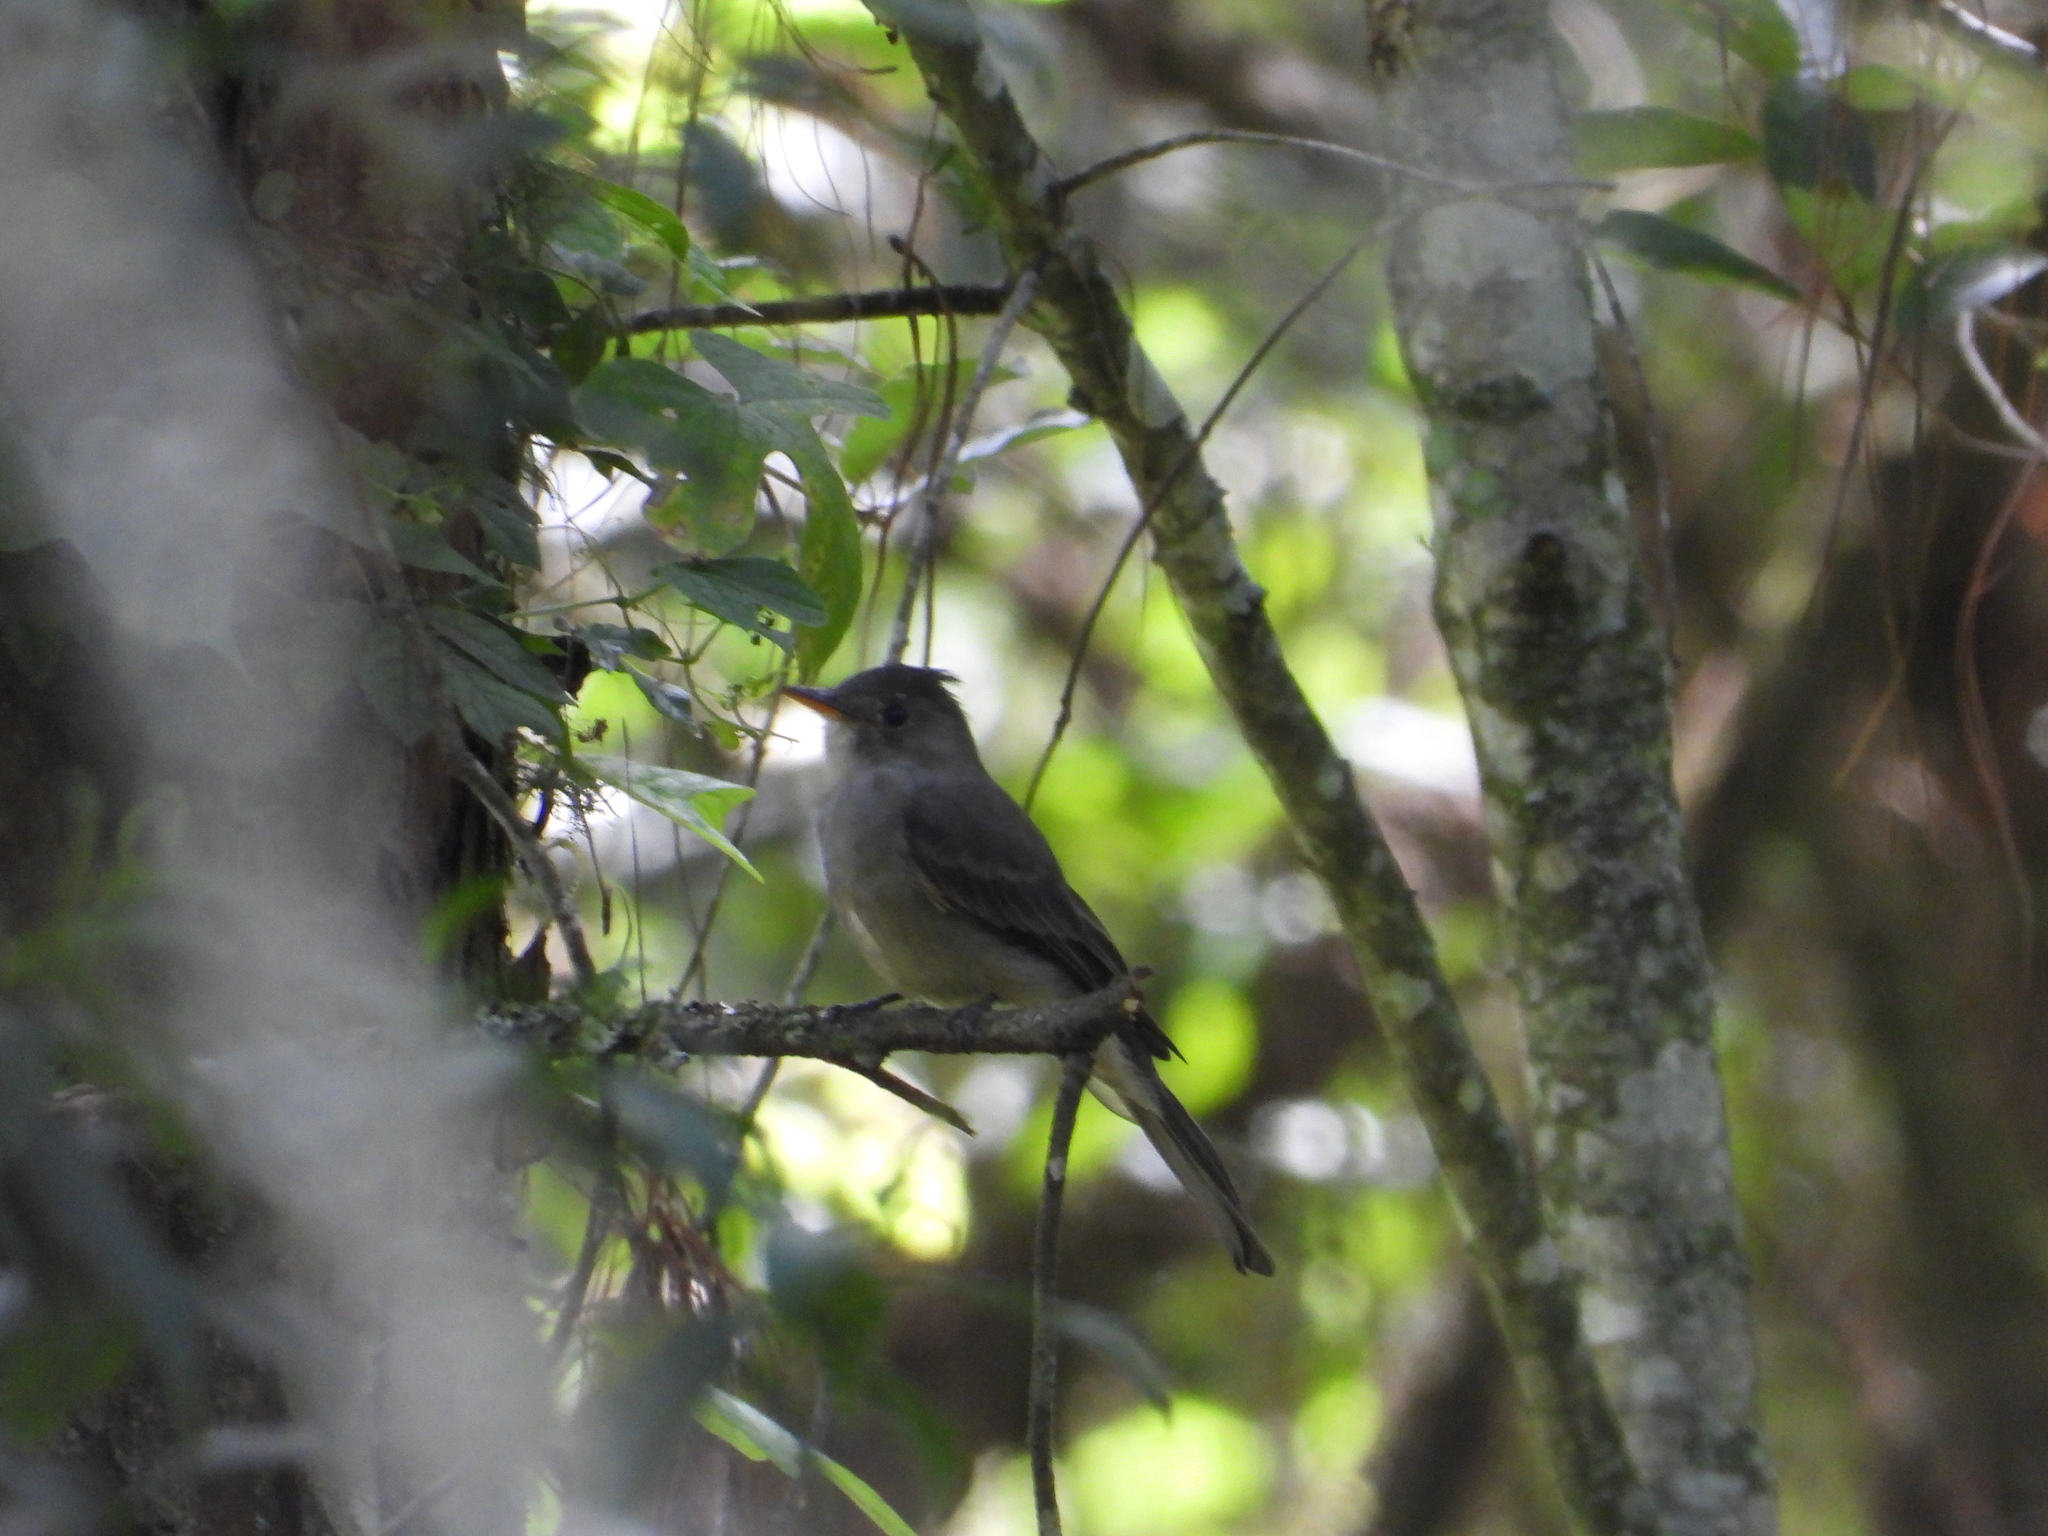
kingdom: Animalia
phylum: Chordata
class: Aves
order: Passeriformes
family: Tyrannidae
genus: Contopus
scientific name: Contopus pertinax
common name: Greater pewee
